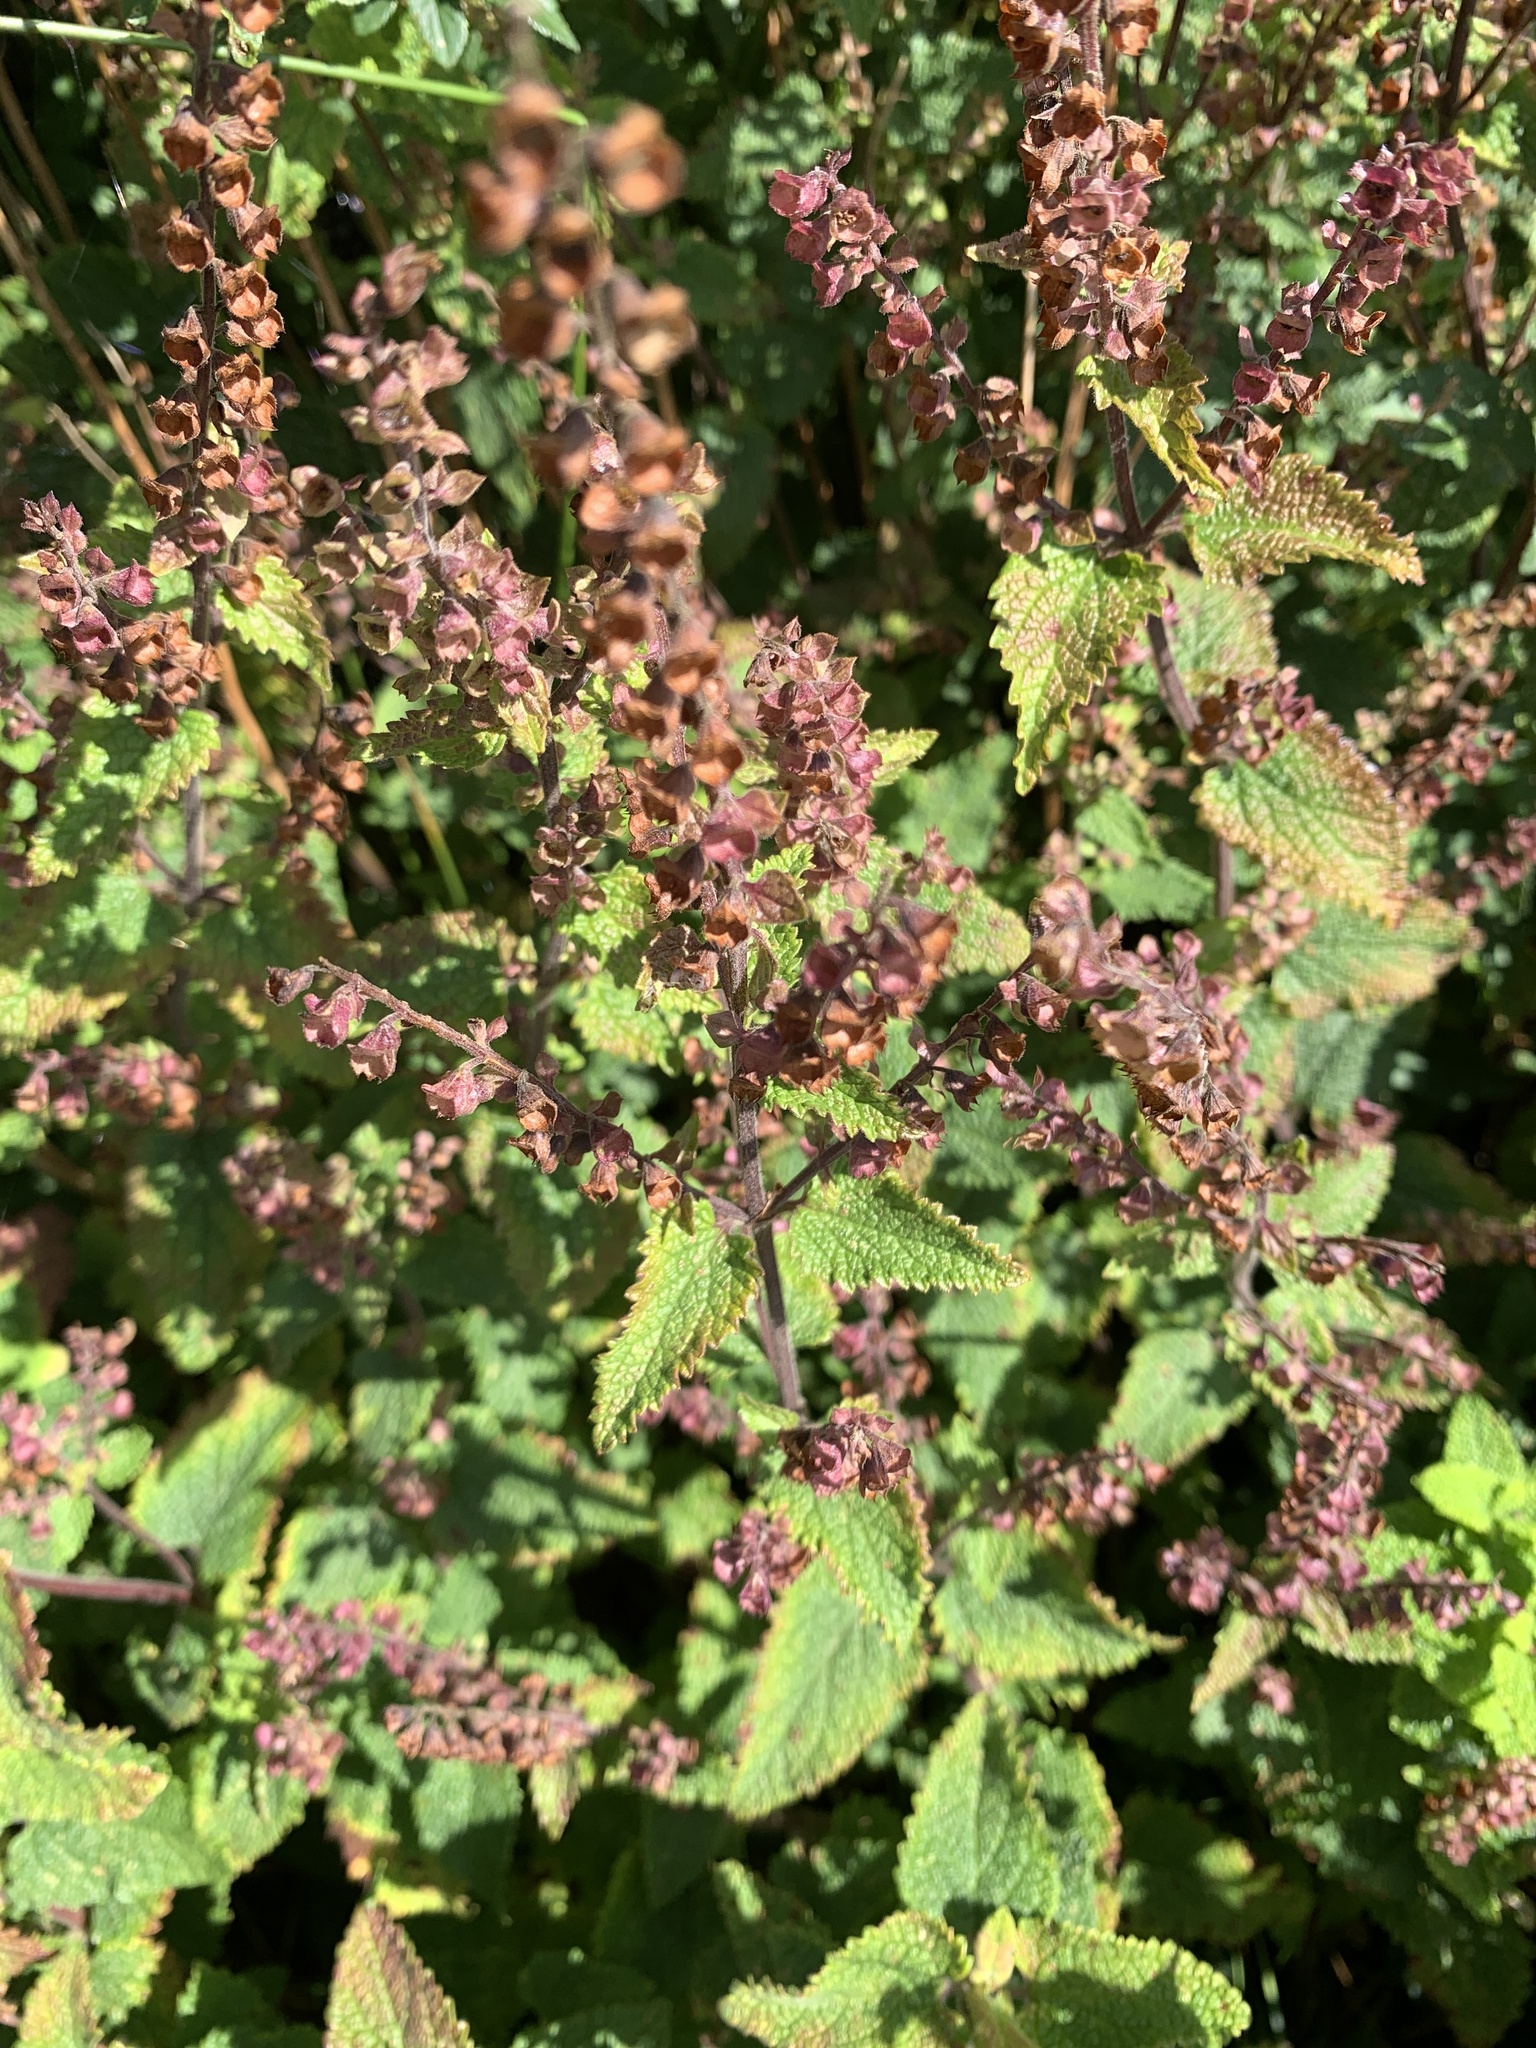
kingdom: Plantae
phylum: Tracheophyta
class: Magnoliopsida
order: Lamiales
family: Lamiaceae
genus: Teucrium
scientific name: Teucrium scorodonia
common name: Woodland germander
